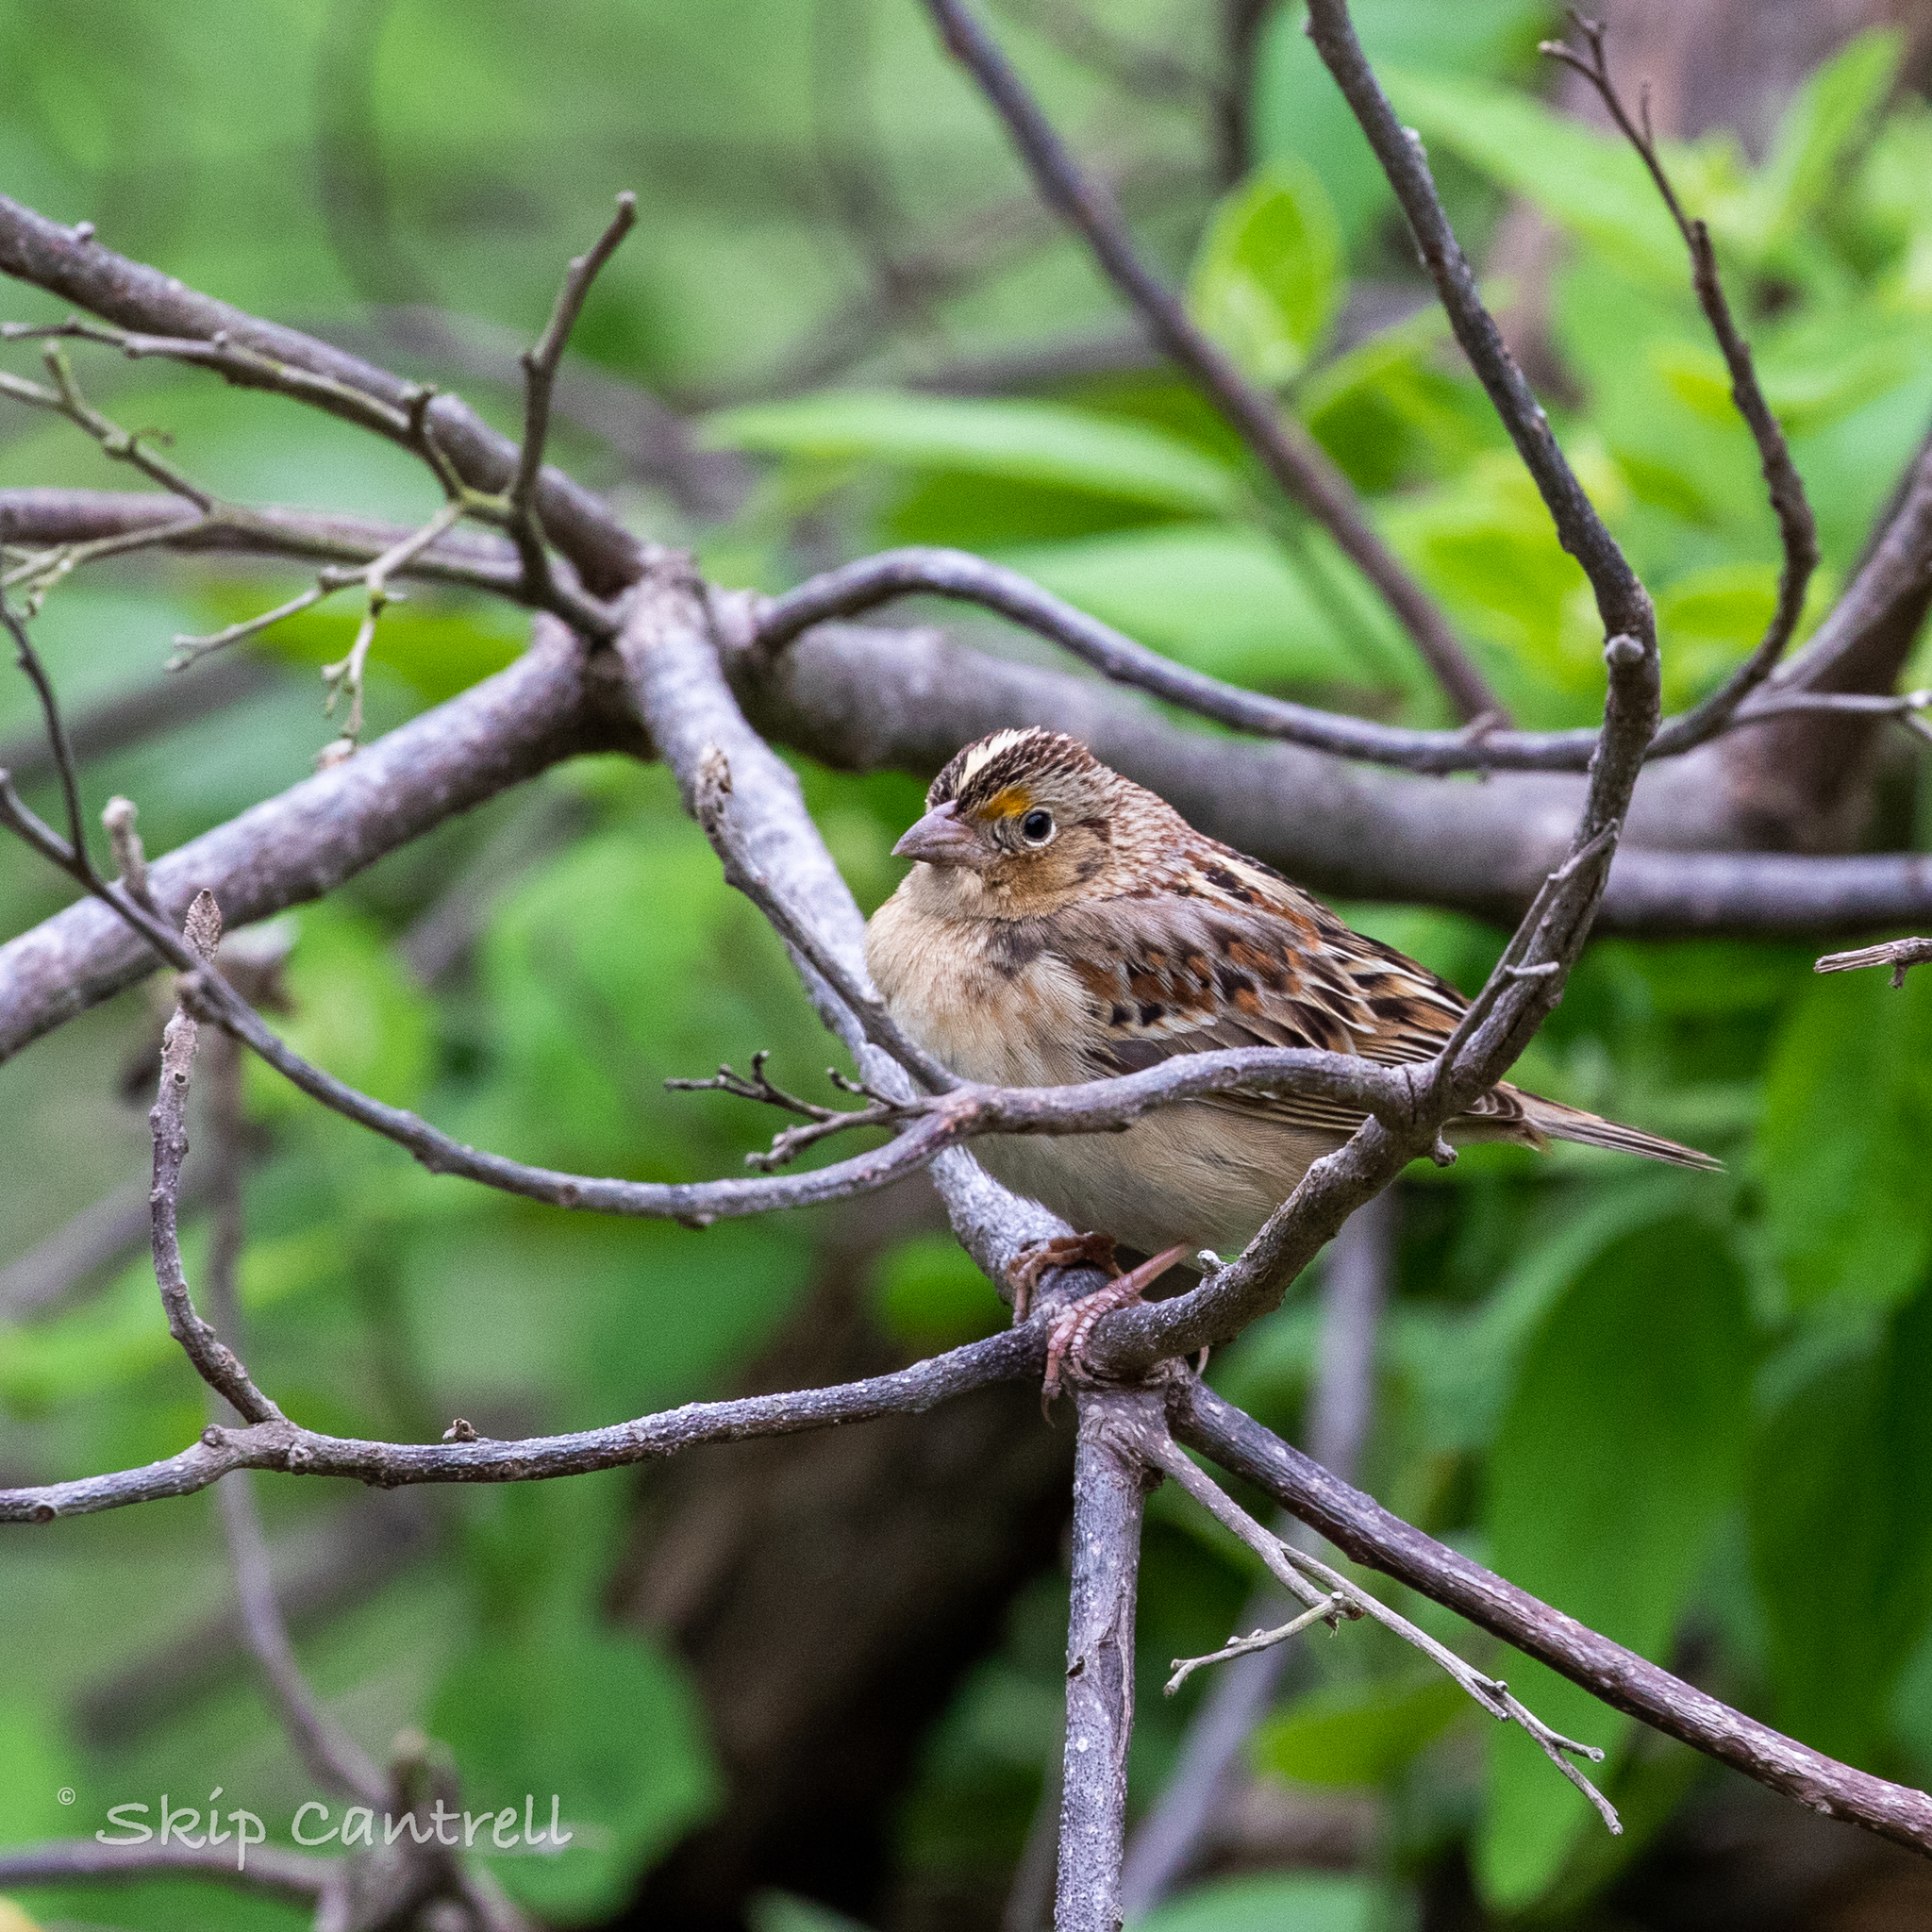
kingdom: Animalia
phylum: Chordata
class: Aves
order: Passeriformes
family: Passerellidae
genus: Ammodramus
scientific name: Ammodramus savannarum
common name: Grasshopper sparrow
